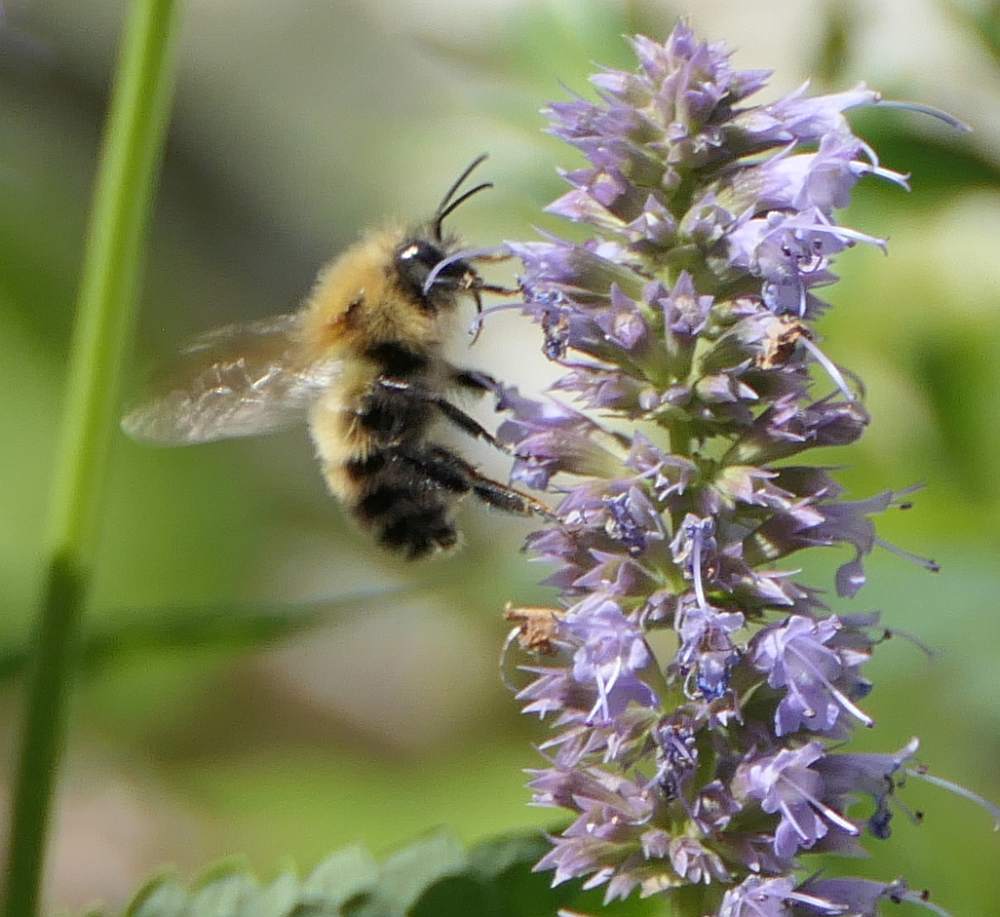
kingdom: Animalia
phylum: Arthropoda
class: Insecta
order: Hymenoptera
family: Apidae
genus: Bombus
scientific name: Bombus perplexus
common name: Confusing bumble bee
